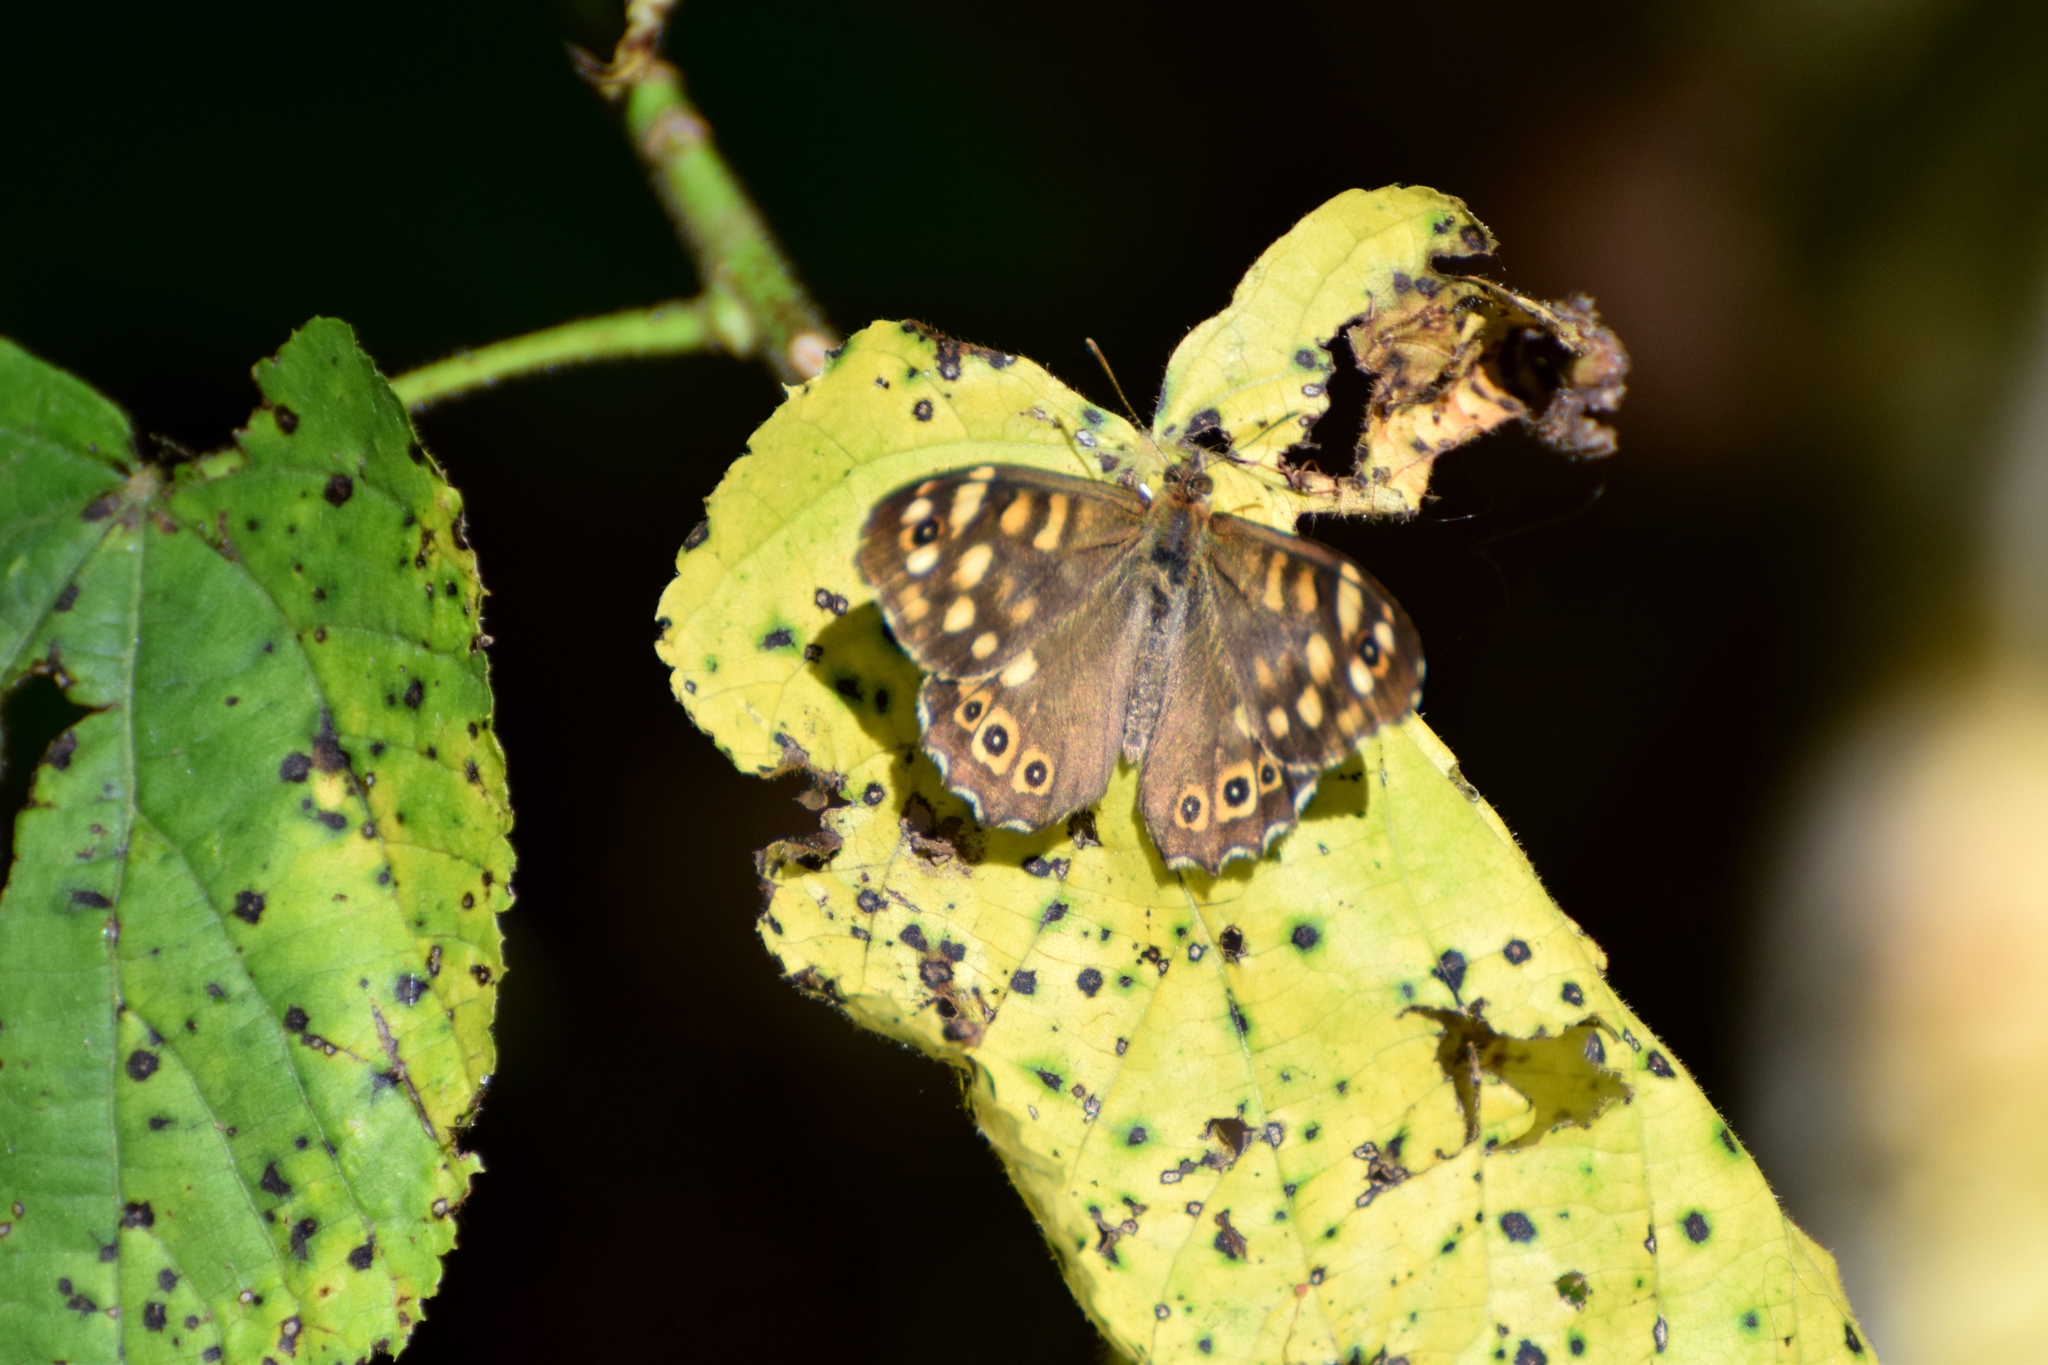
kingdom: Animalia
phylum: Arthropoda
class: Insecta
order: Lepidoptera
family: Nymphalidae
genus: Pararge
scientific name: Pararge aegeria
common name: Speckled wood
